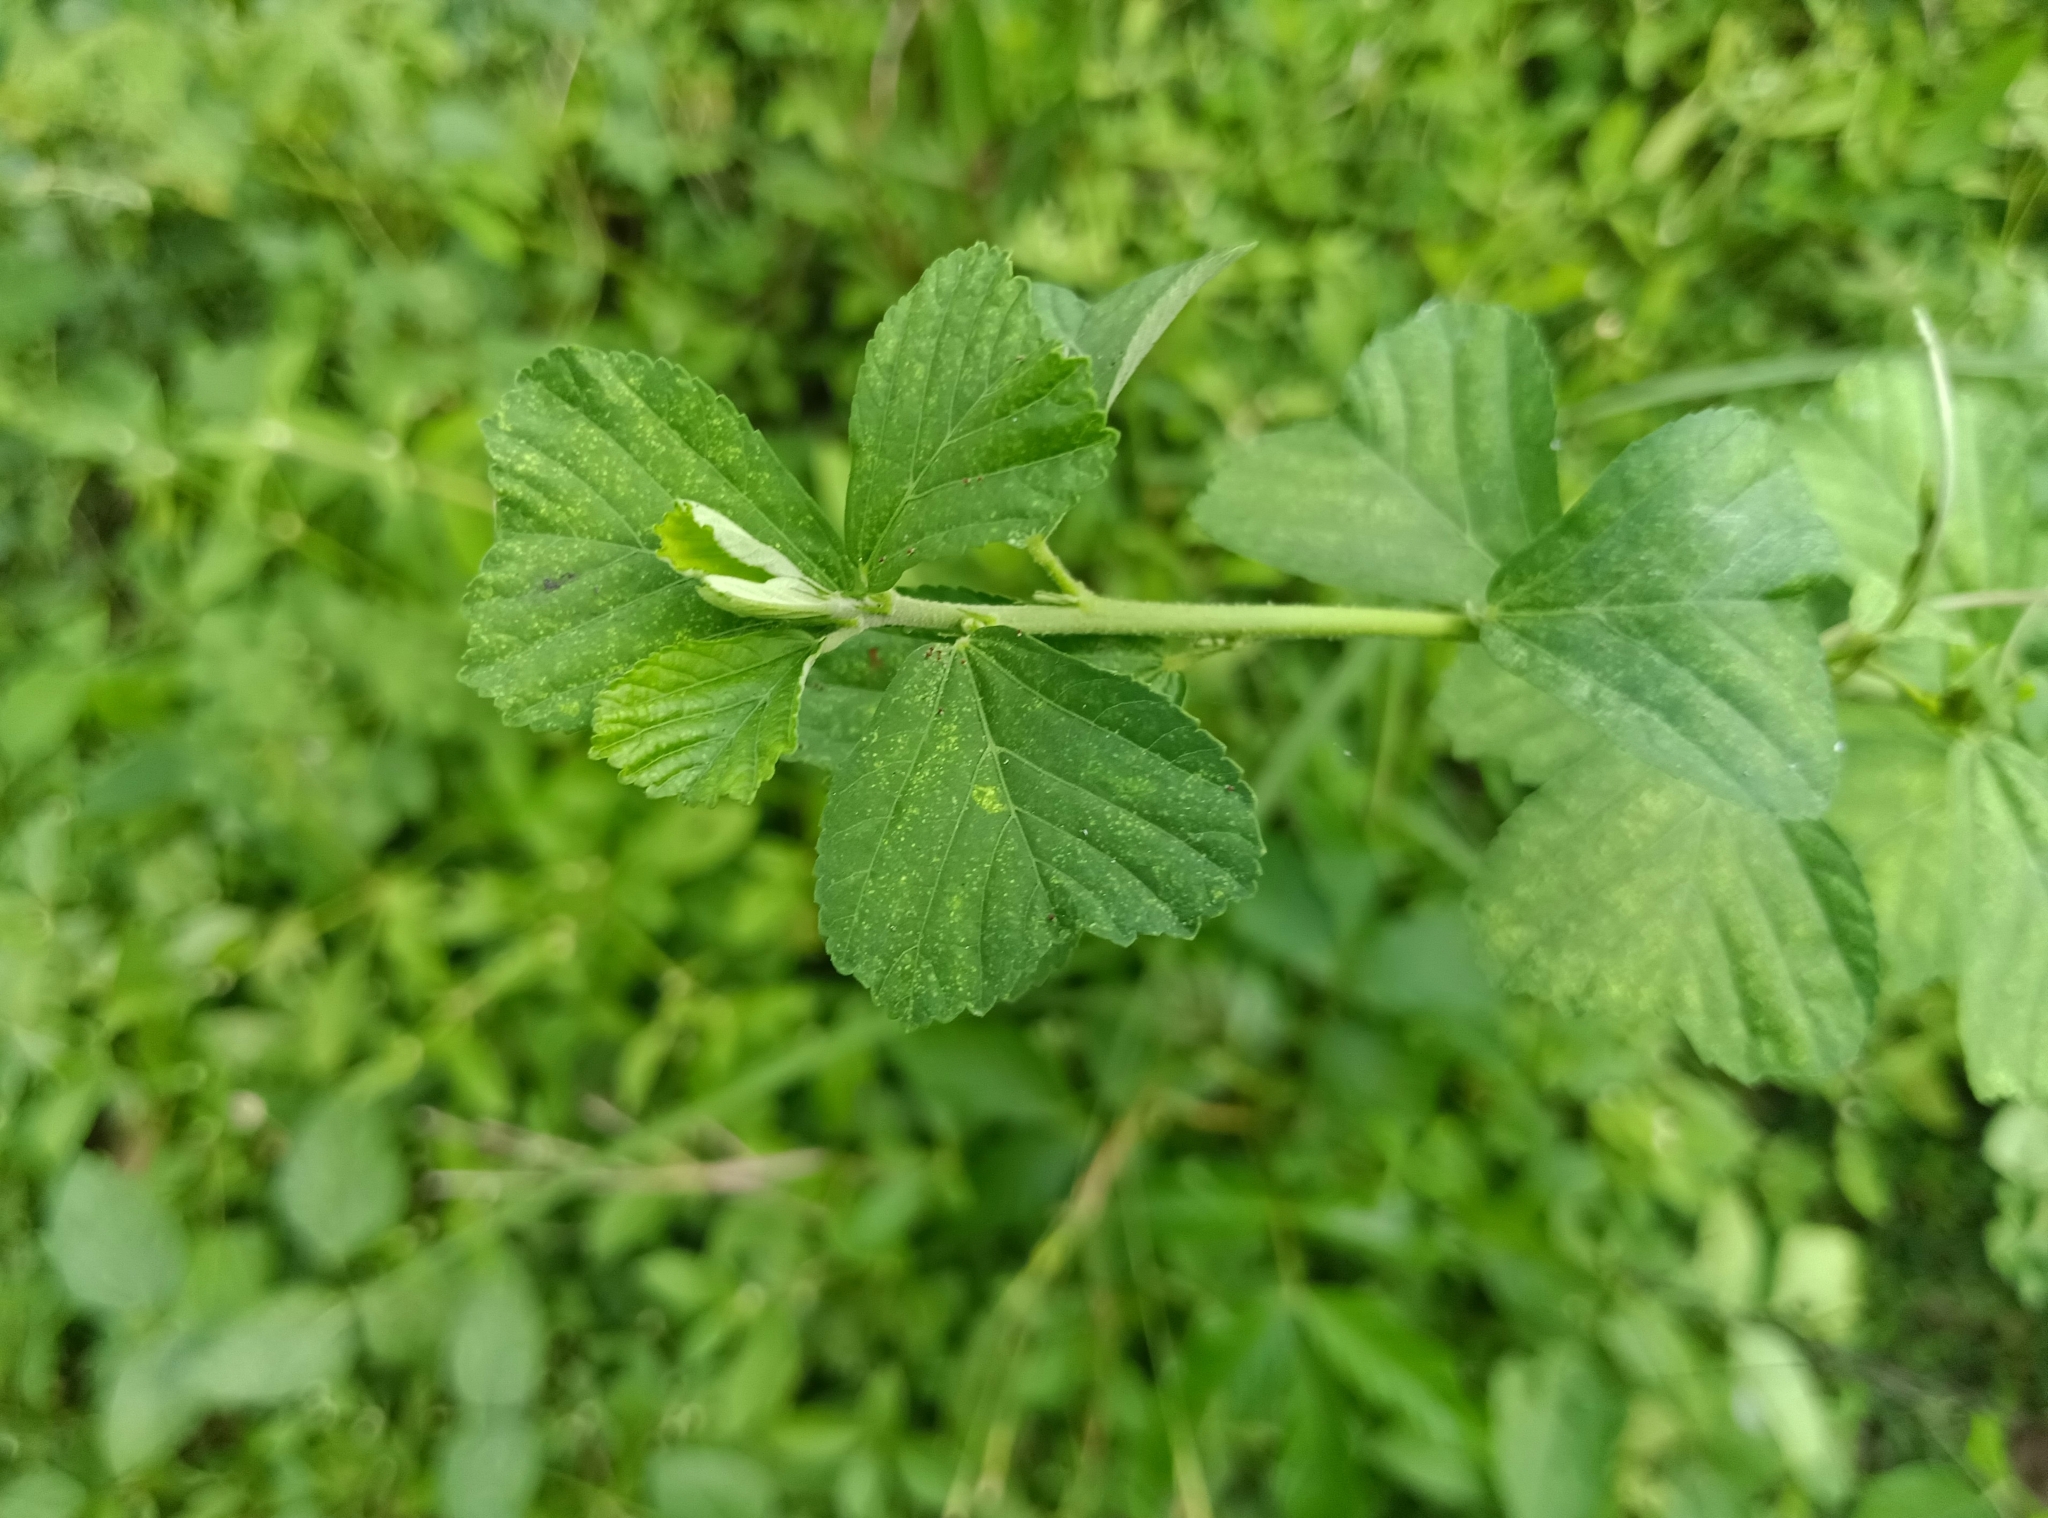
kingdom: Plantae
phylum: Tracheophyta
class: Magnoliopsida
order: Malvales
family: Malvaceae
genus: Sida
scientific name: Sida rhombifolia
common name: Queensland-hemp
